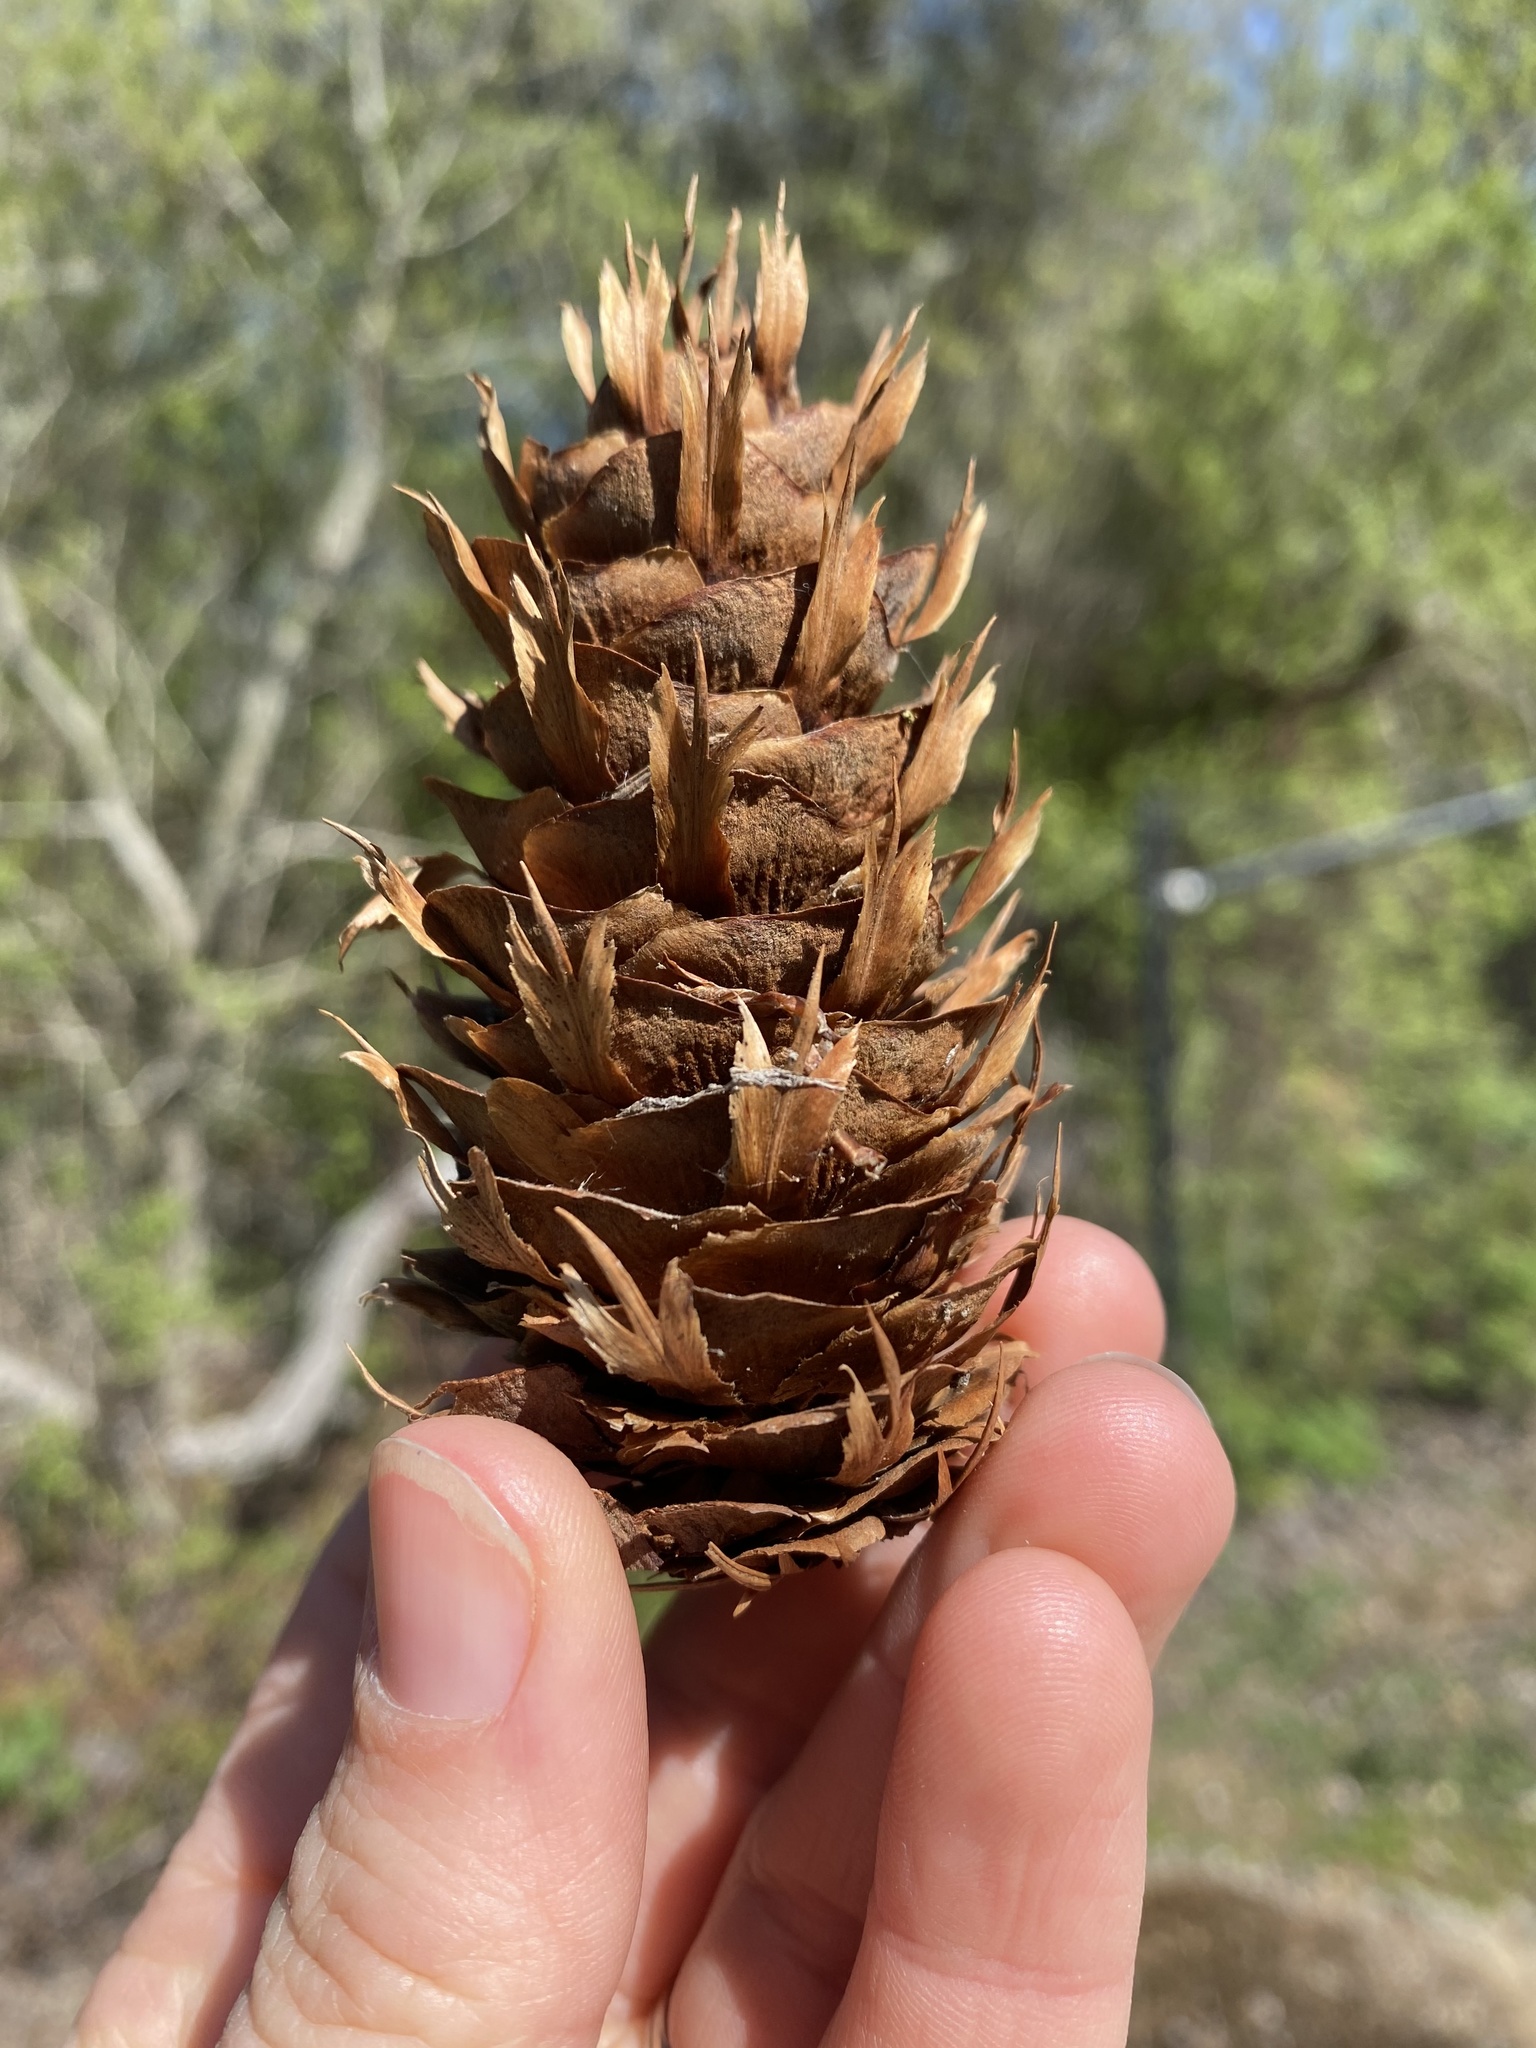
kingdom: Plantae
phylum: Tracheophyta
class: Pinopsida
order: Pinales
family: Pinaceae
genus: Pseudotsuga
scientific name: Pseudotsuga menziesii
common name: Douglas fir
